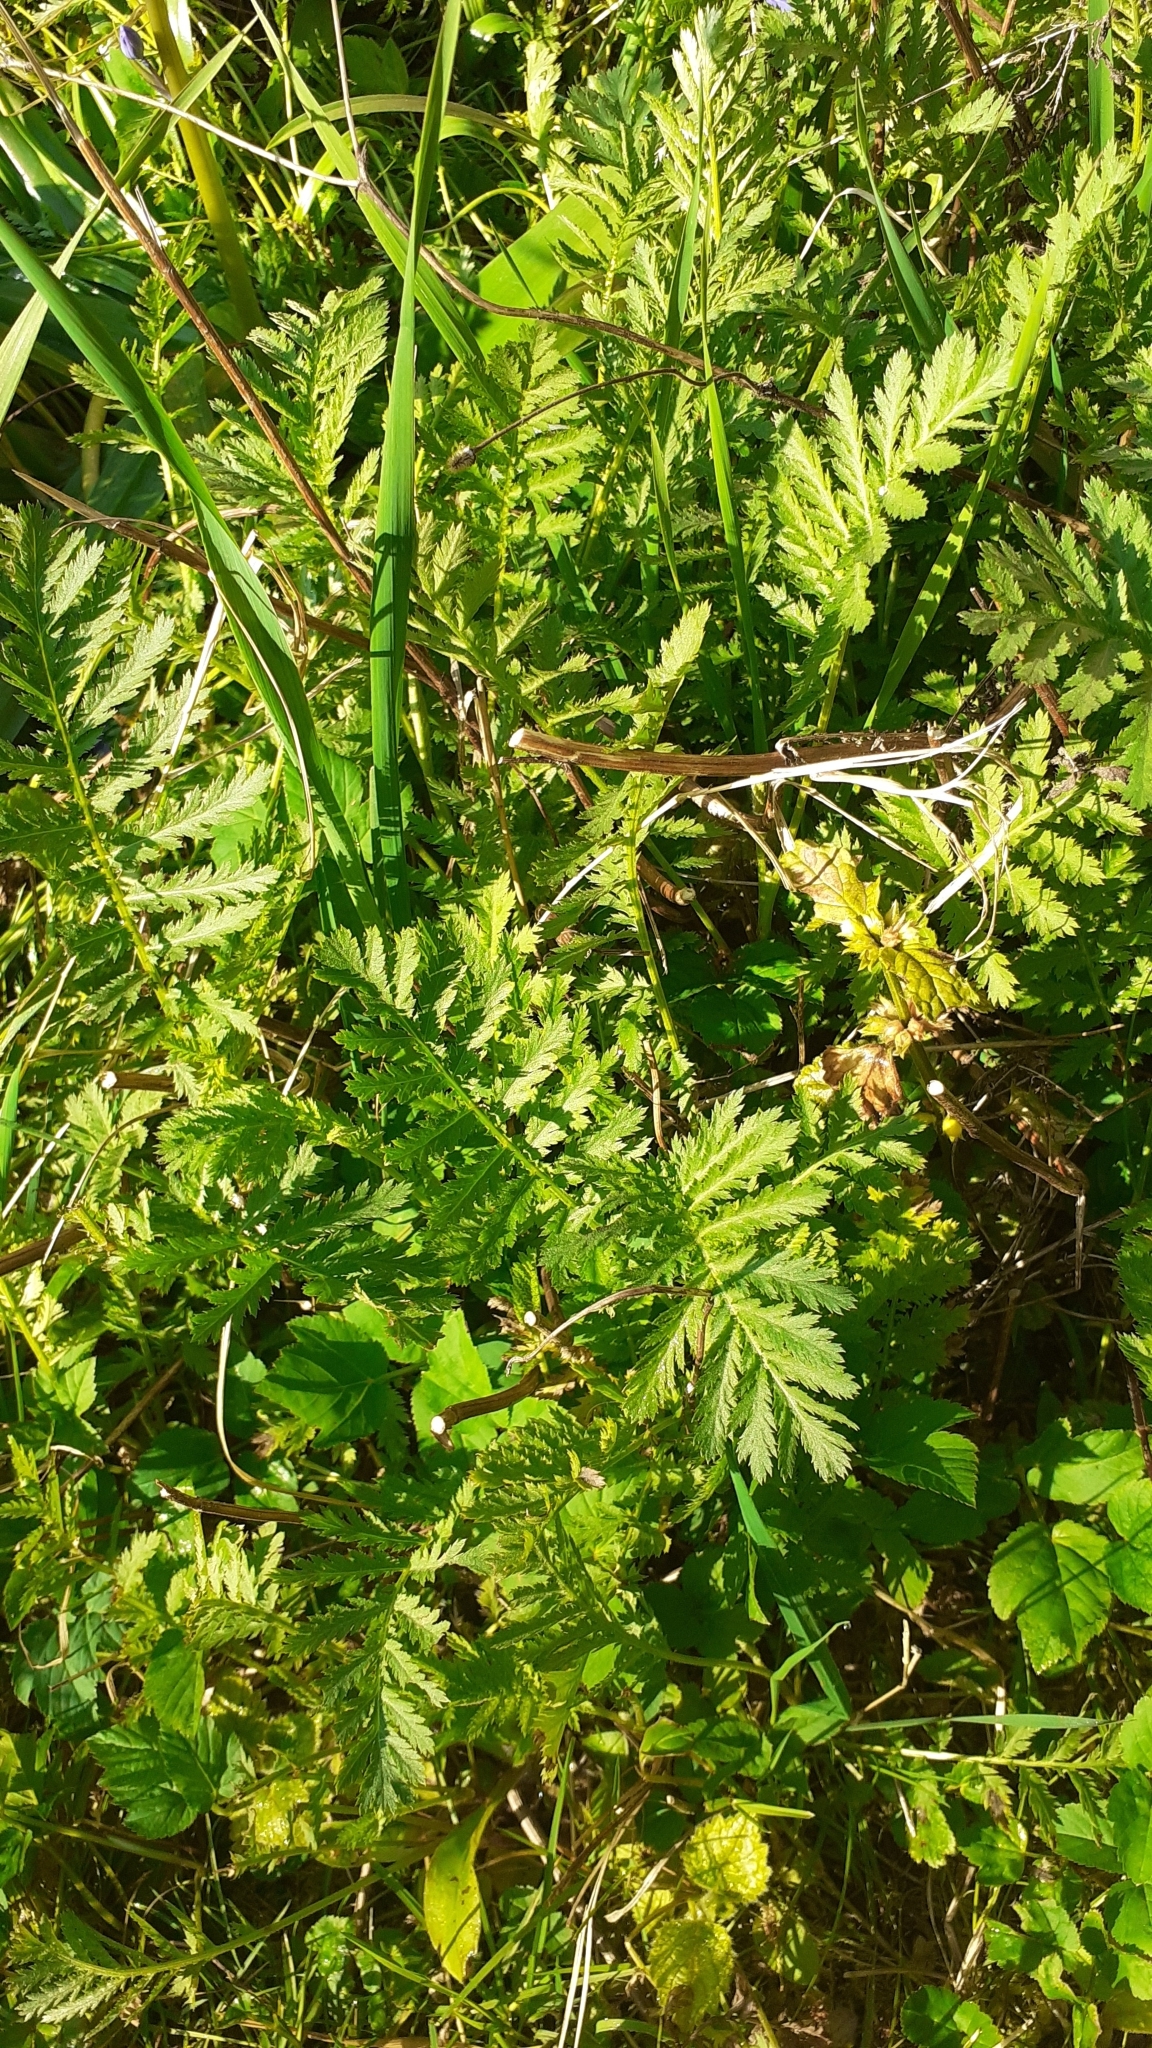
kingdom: Plantae
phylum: Tracheophyta
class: Magnoliopsida
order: Asterales
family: Asteraceae
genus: Tanacetum
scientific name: Tanacetum vulgare
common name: Common tansy
